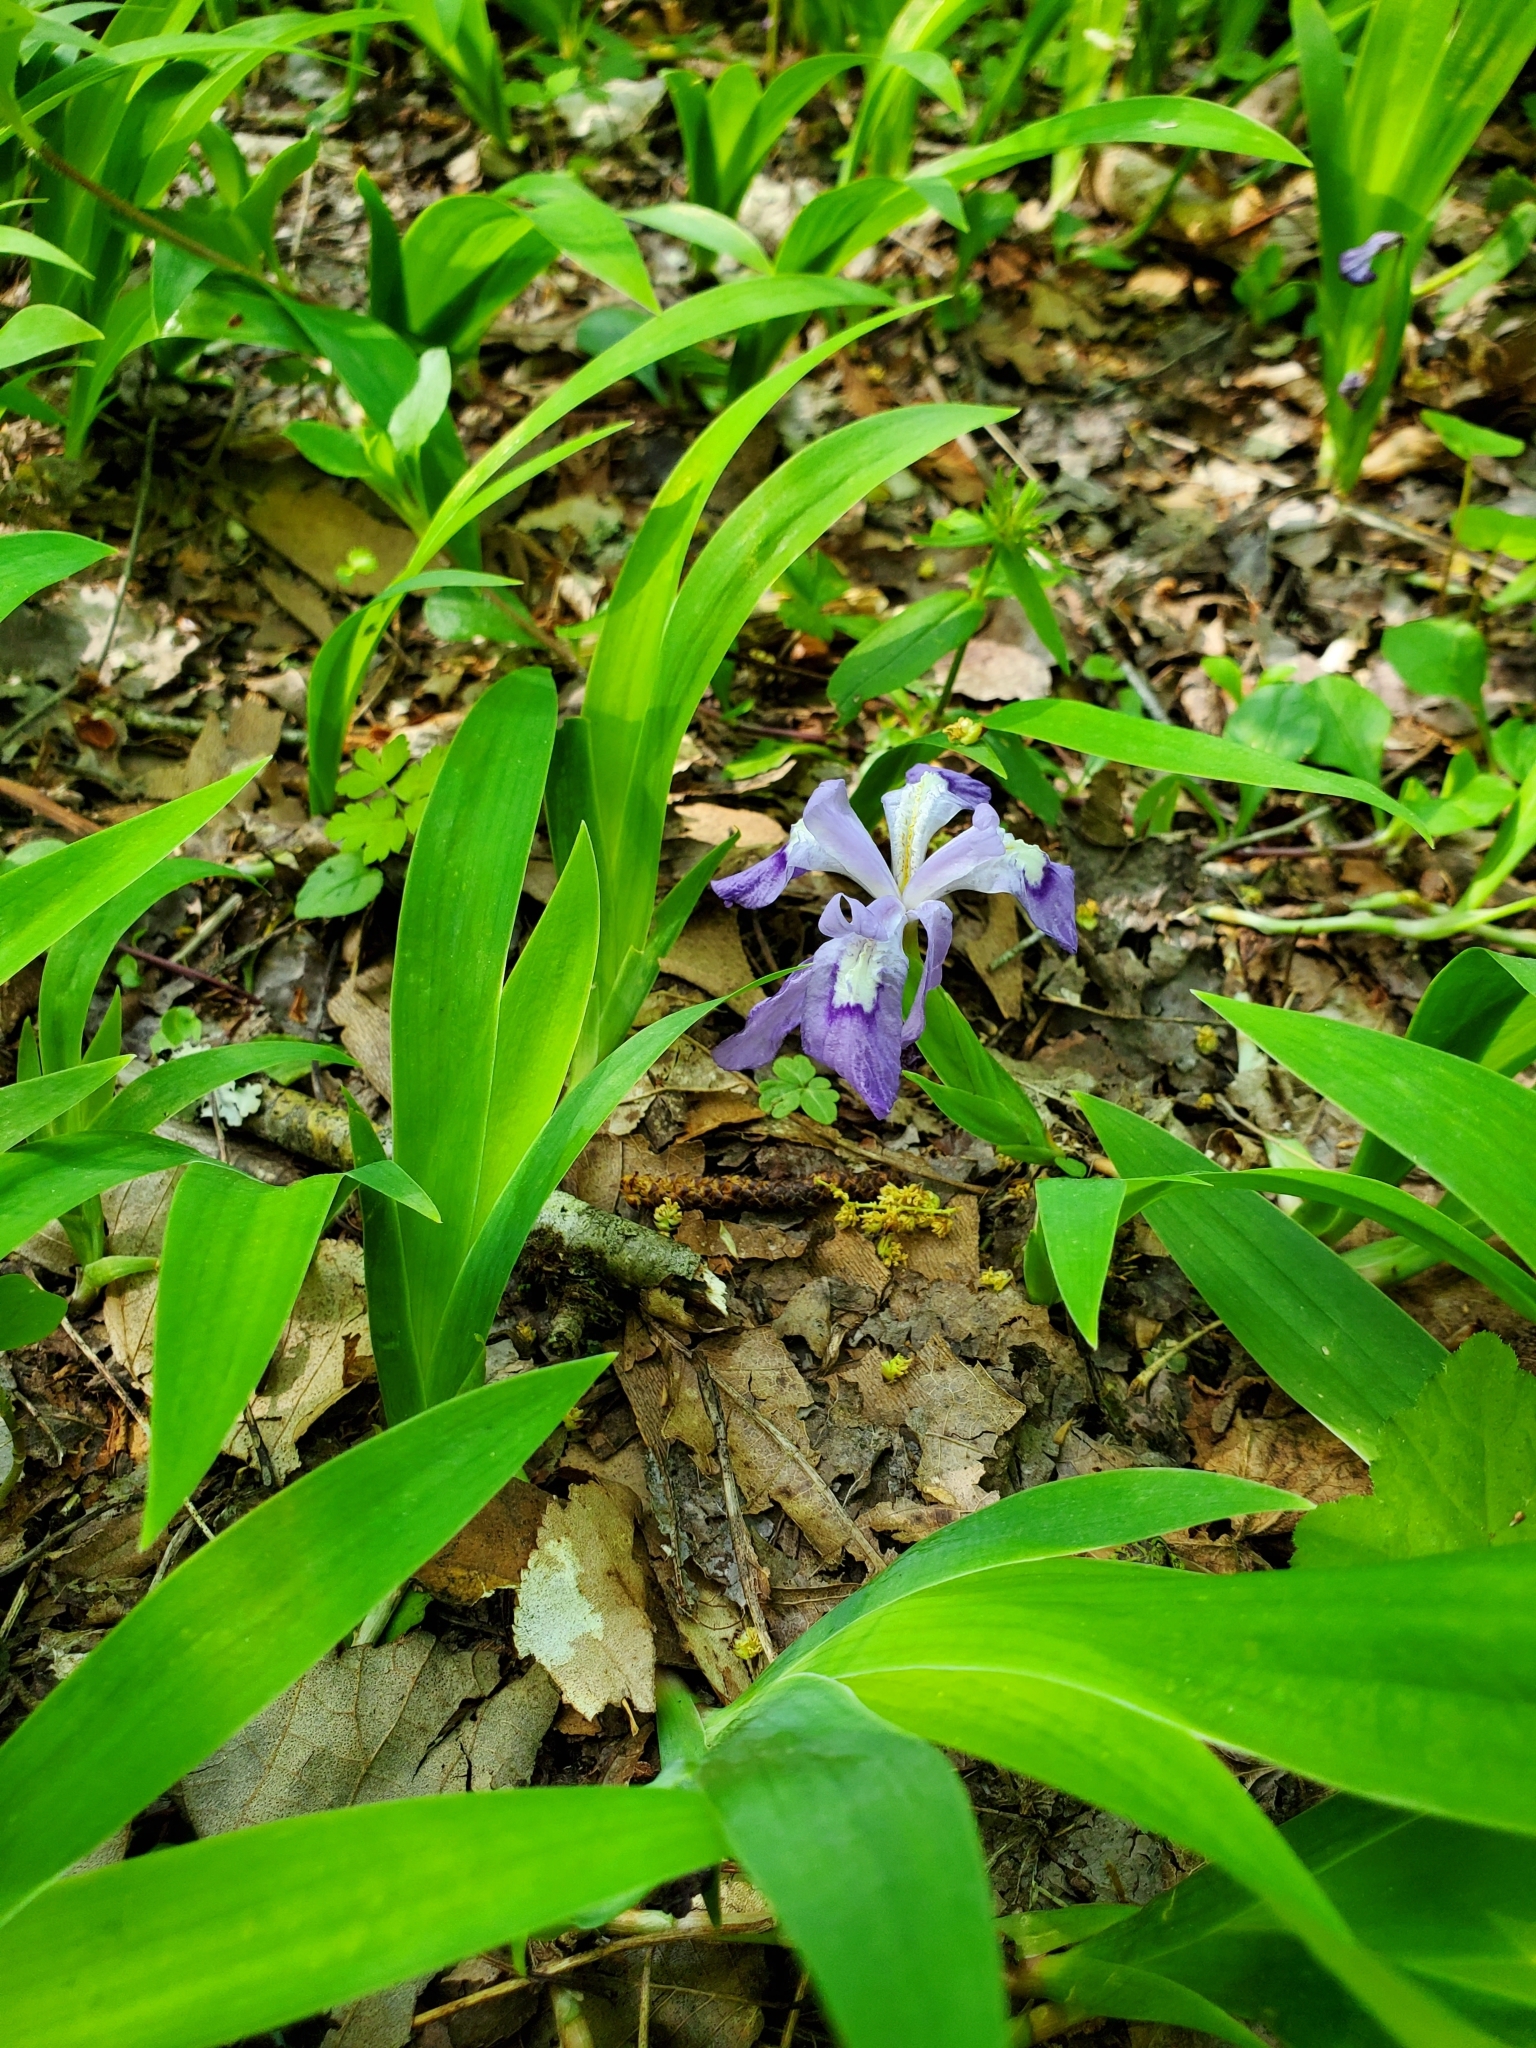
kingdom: Plantae
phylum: Tracheophyta
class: Liliopsida
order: Asparagales
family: Iridaceae
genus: Iris
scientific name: Iris cristata
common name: Crested iris
